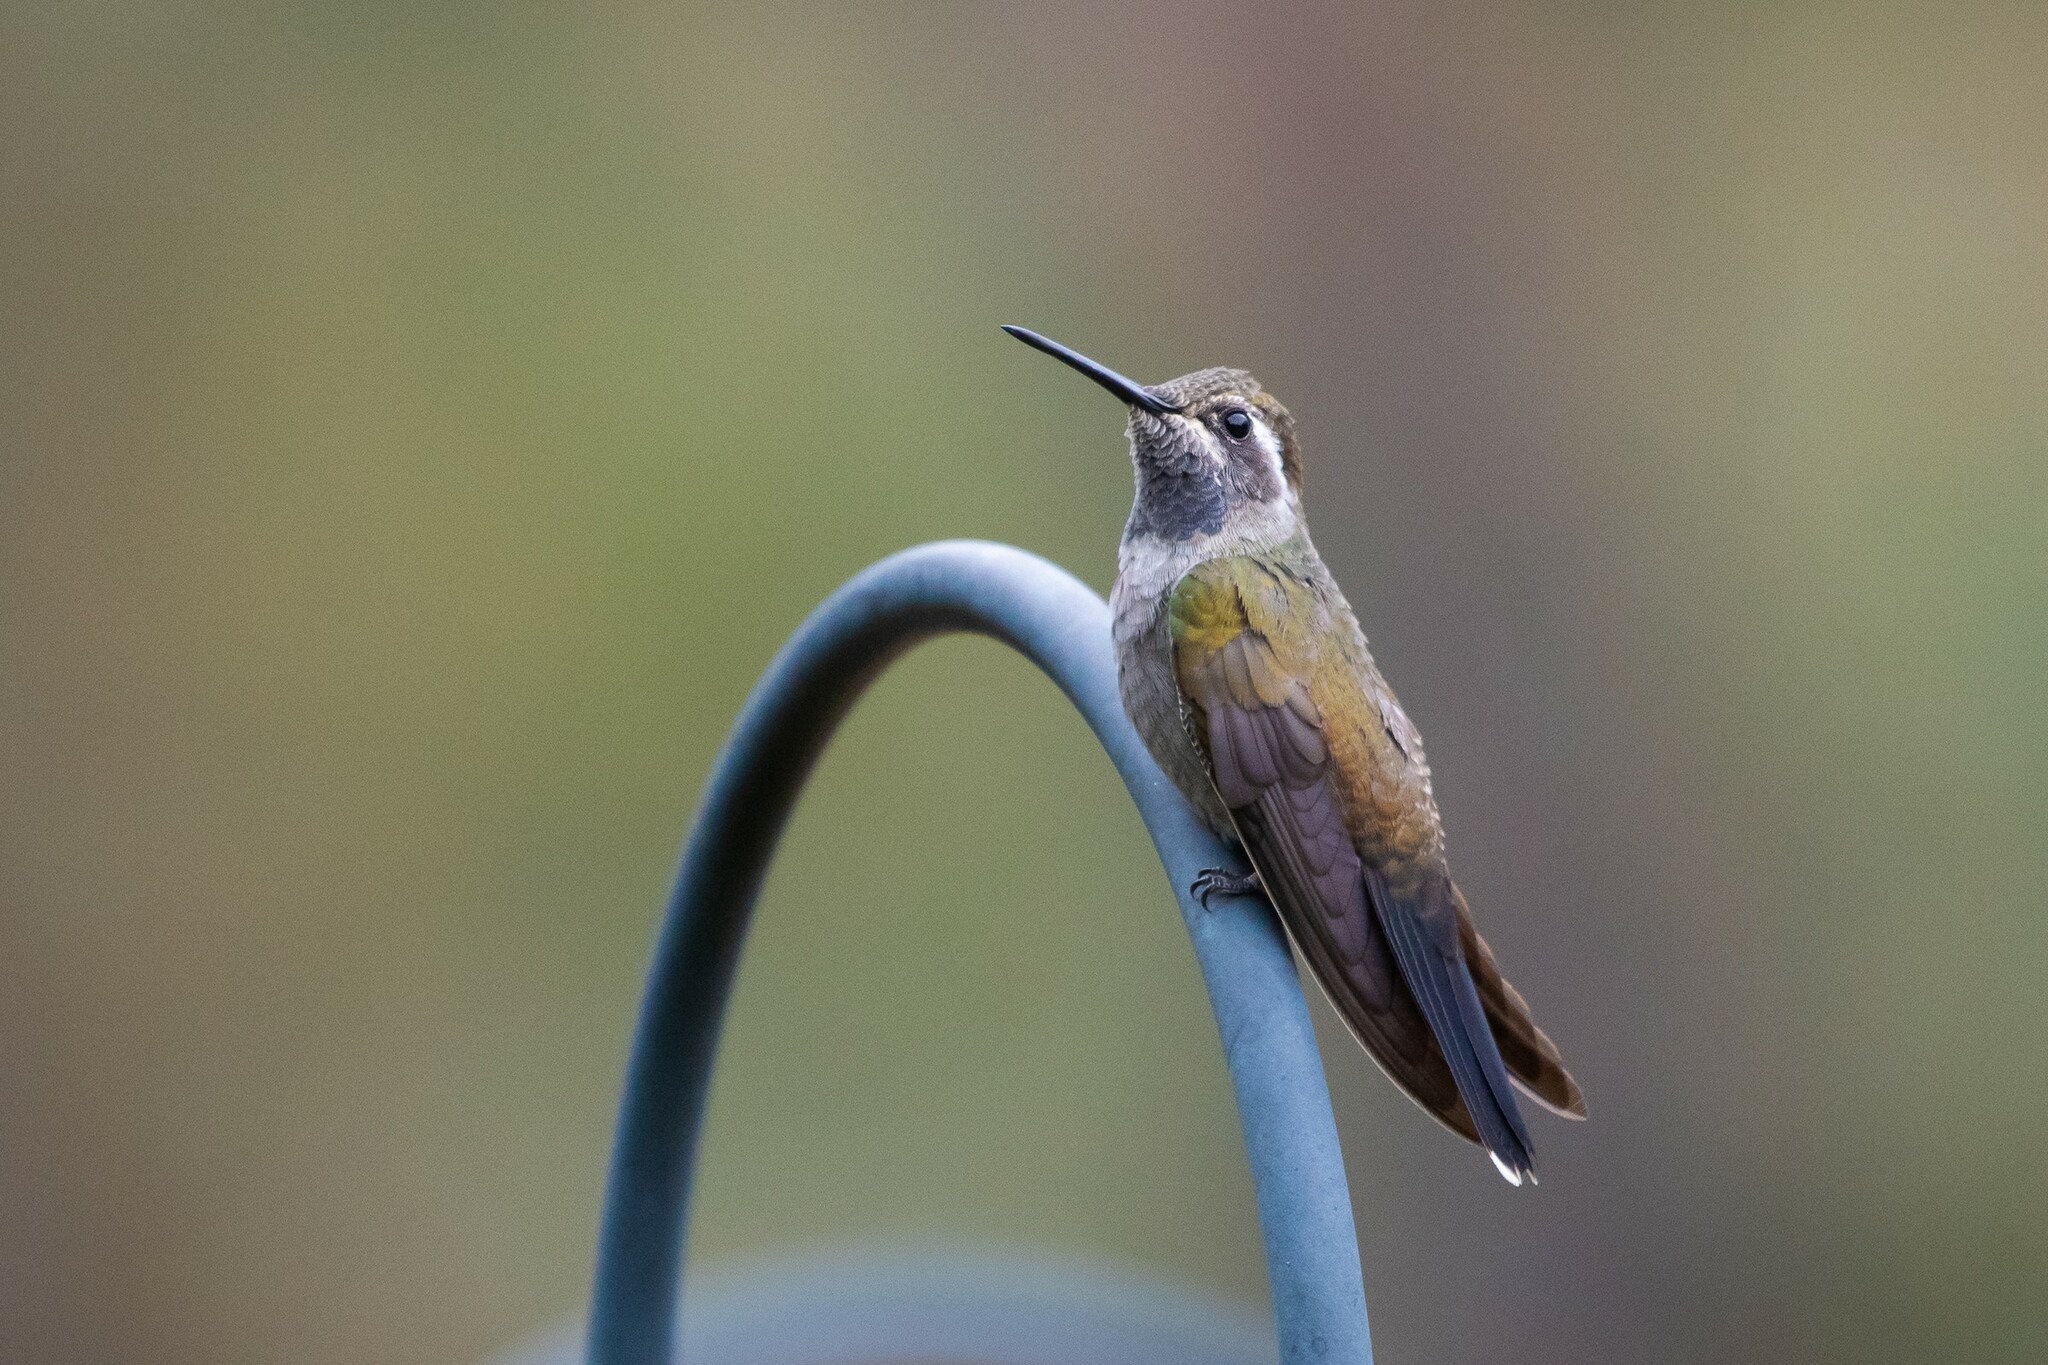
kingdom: Animalia
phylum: Chordata
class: Aves
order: Apodiformes
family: Trochilidae
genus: Lampornis
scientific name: Lampornis clemenciae
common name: Blue-throated mountaingem
